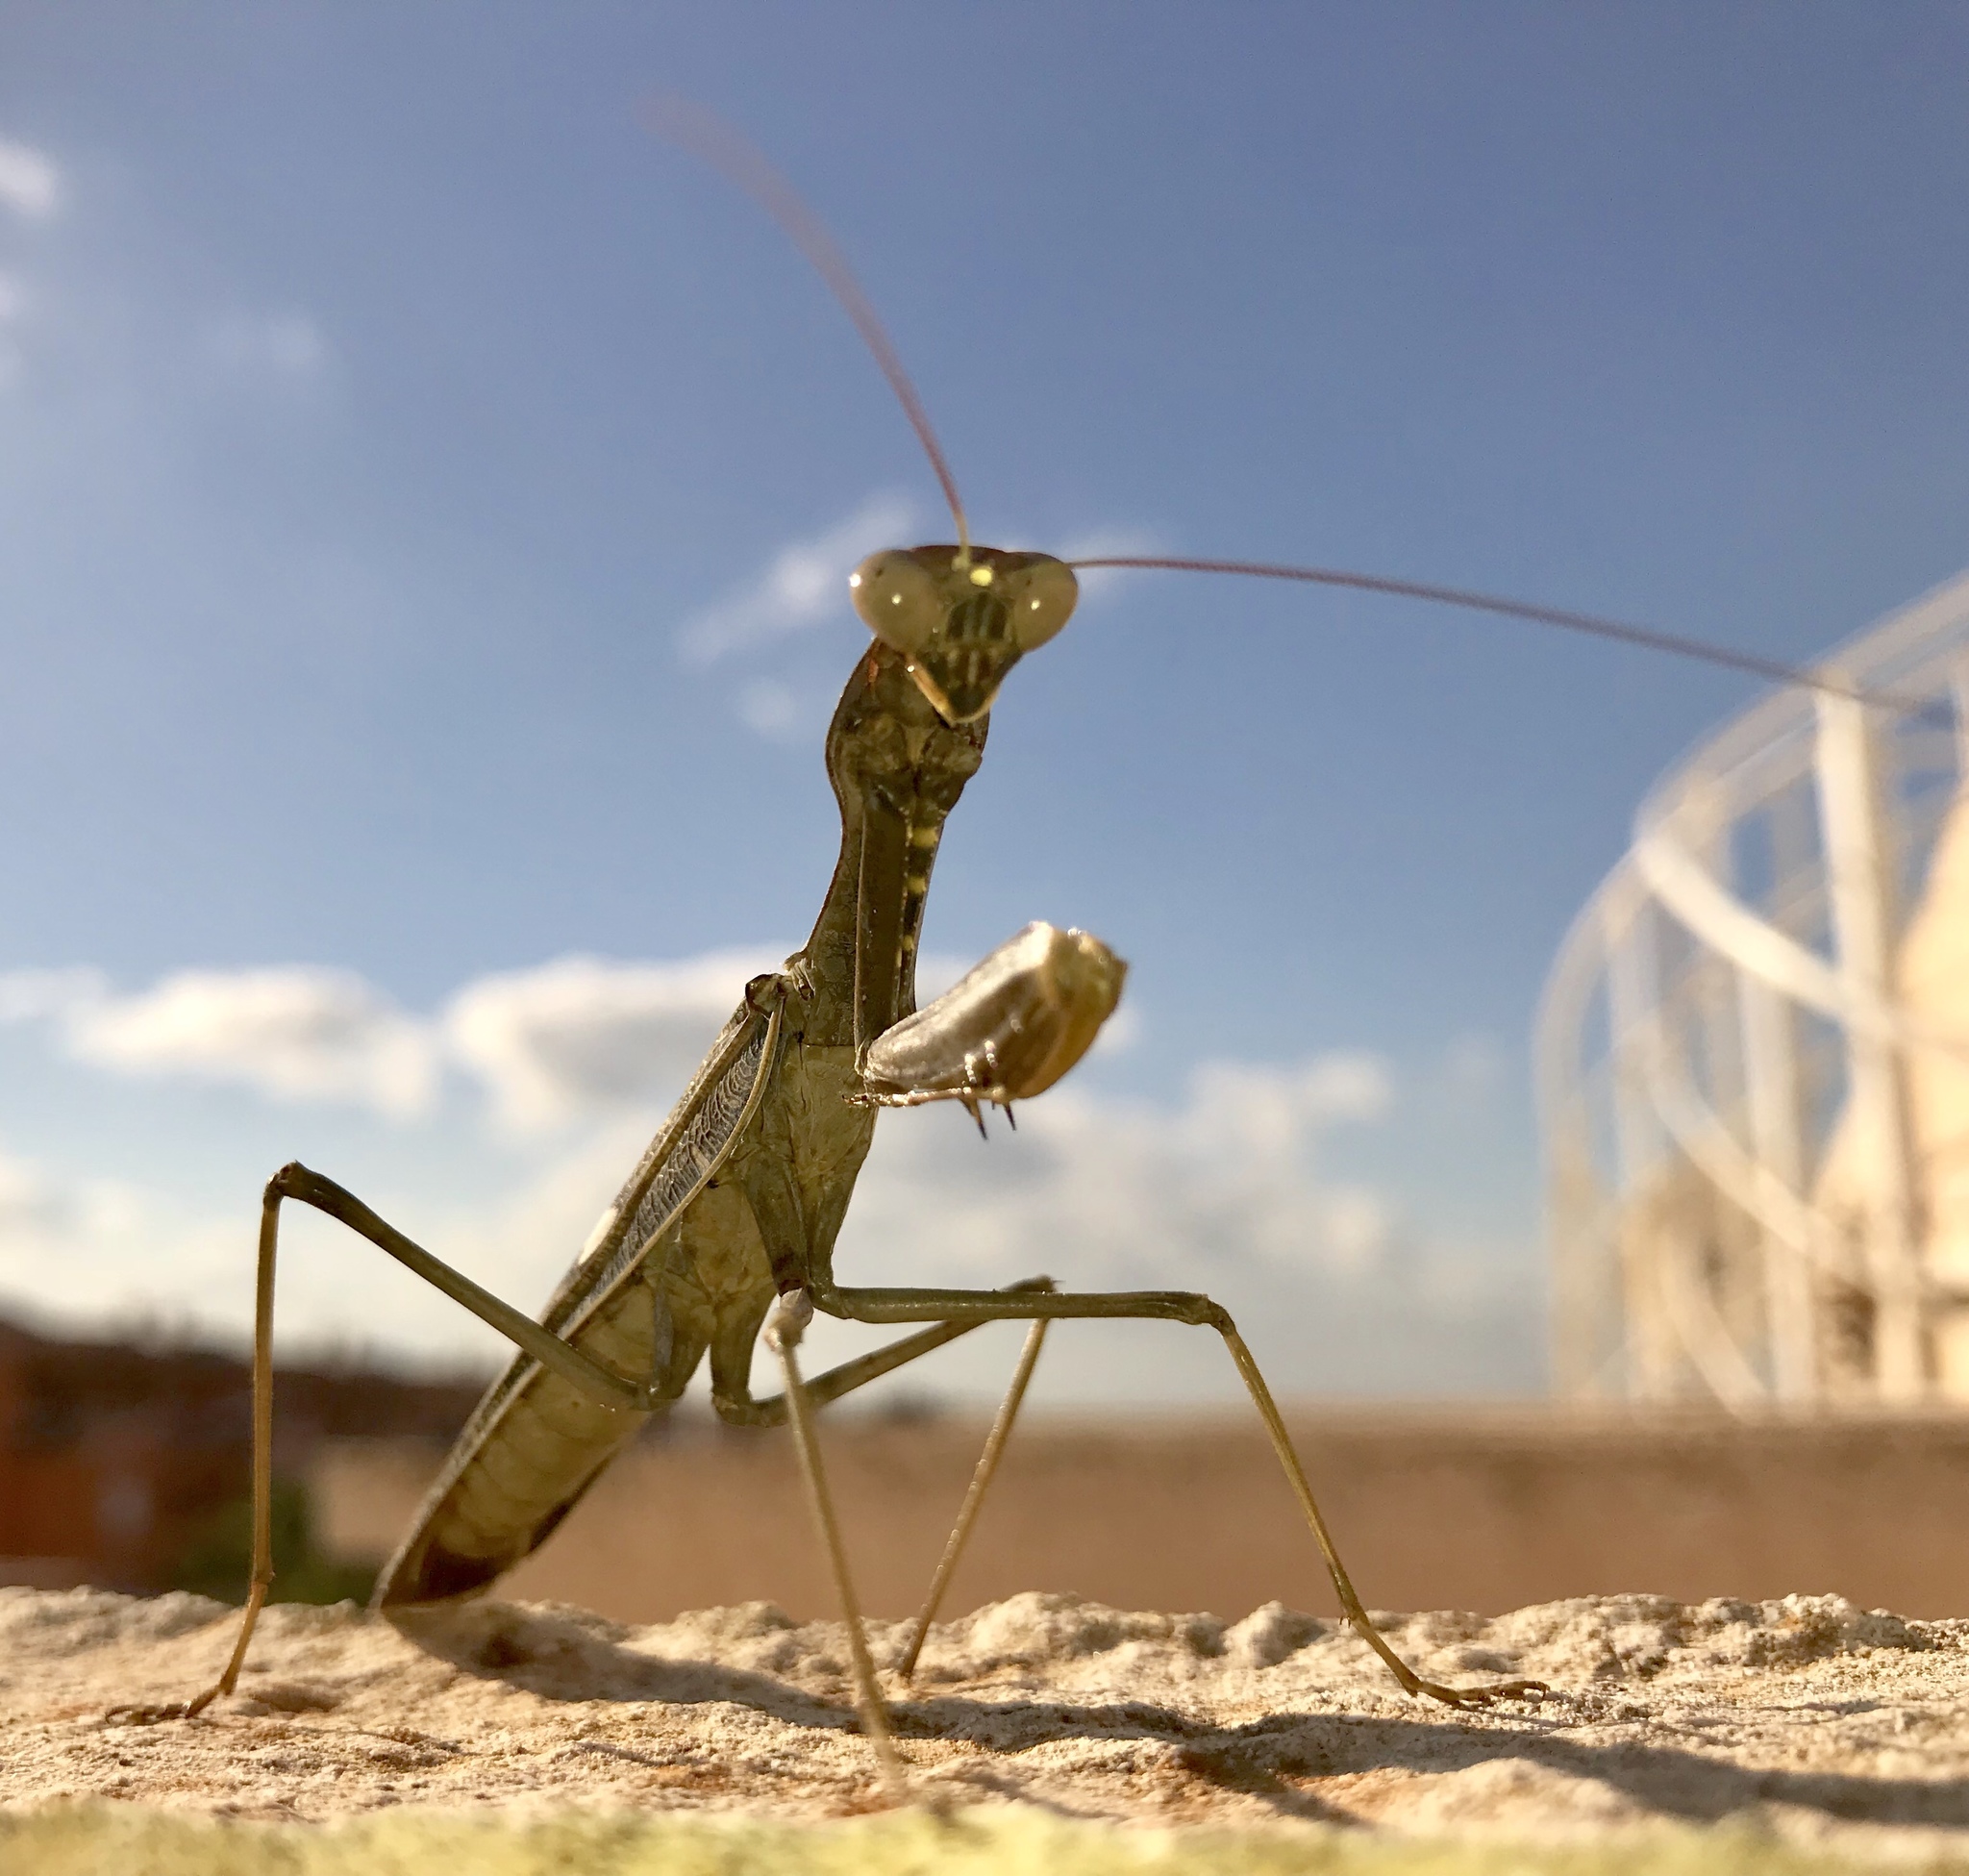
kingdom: Animalia
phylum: Arthropoda
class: Insecta
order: Mantodea
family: Mantidae
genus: Sphodromantis
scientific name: Sphodromantis viridis
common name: Giant african mantis
